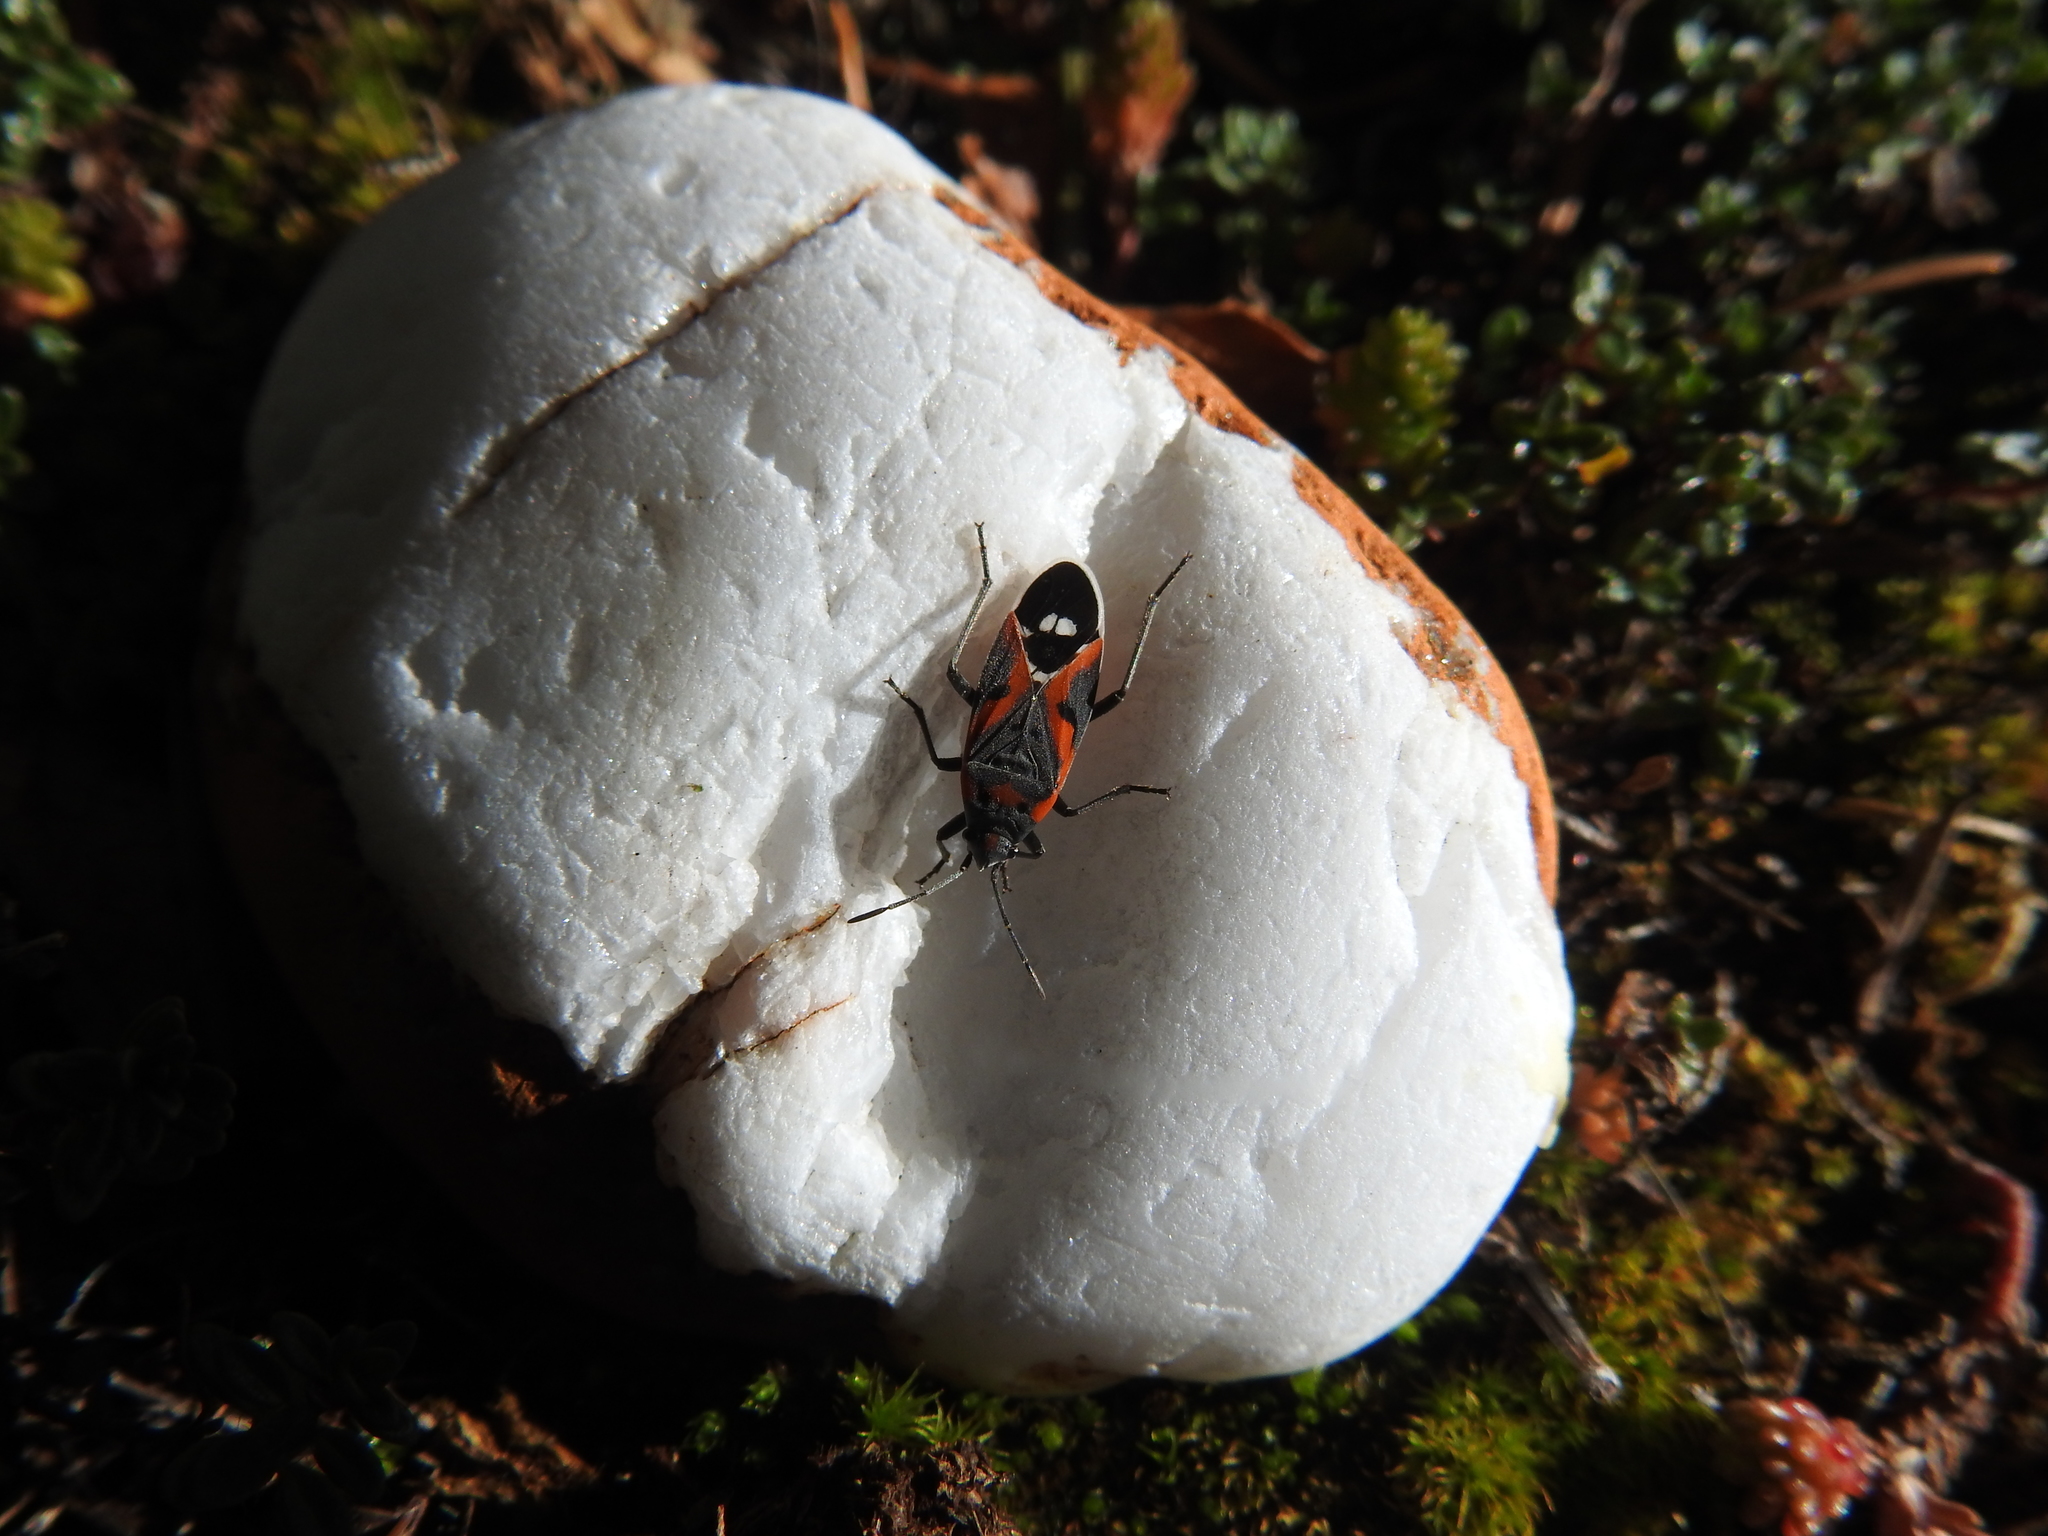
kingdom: Animalia
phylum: Arthropoda
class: Insecta
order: Hemiptera
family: Lygaeidae
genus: Lygaeus
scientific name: Lygaeus kalmii
